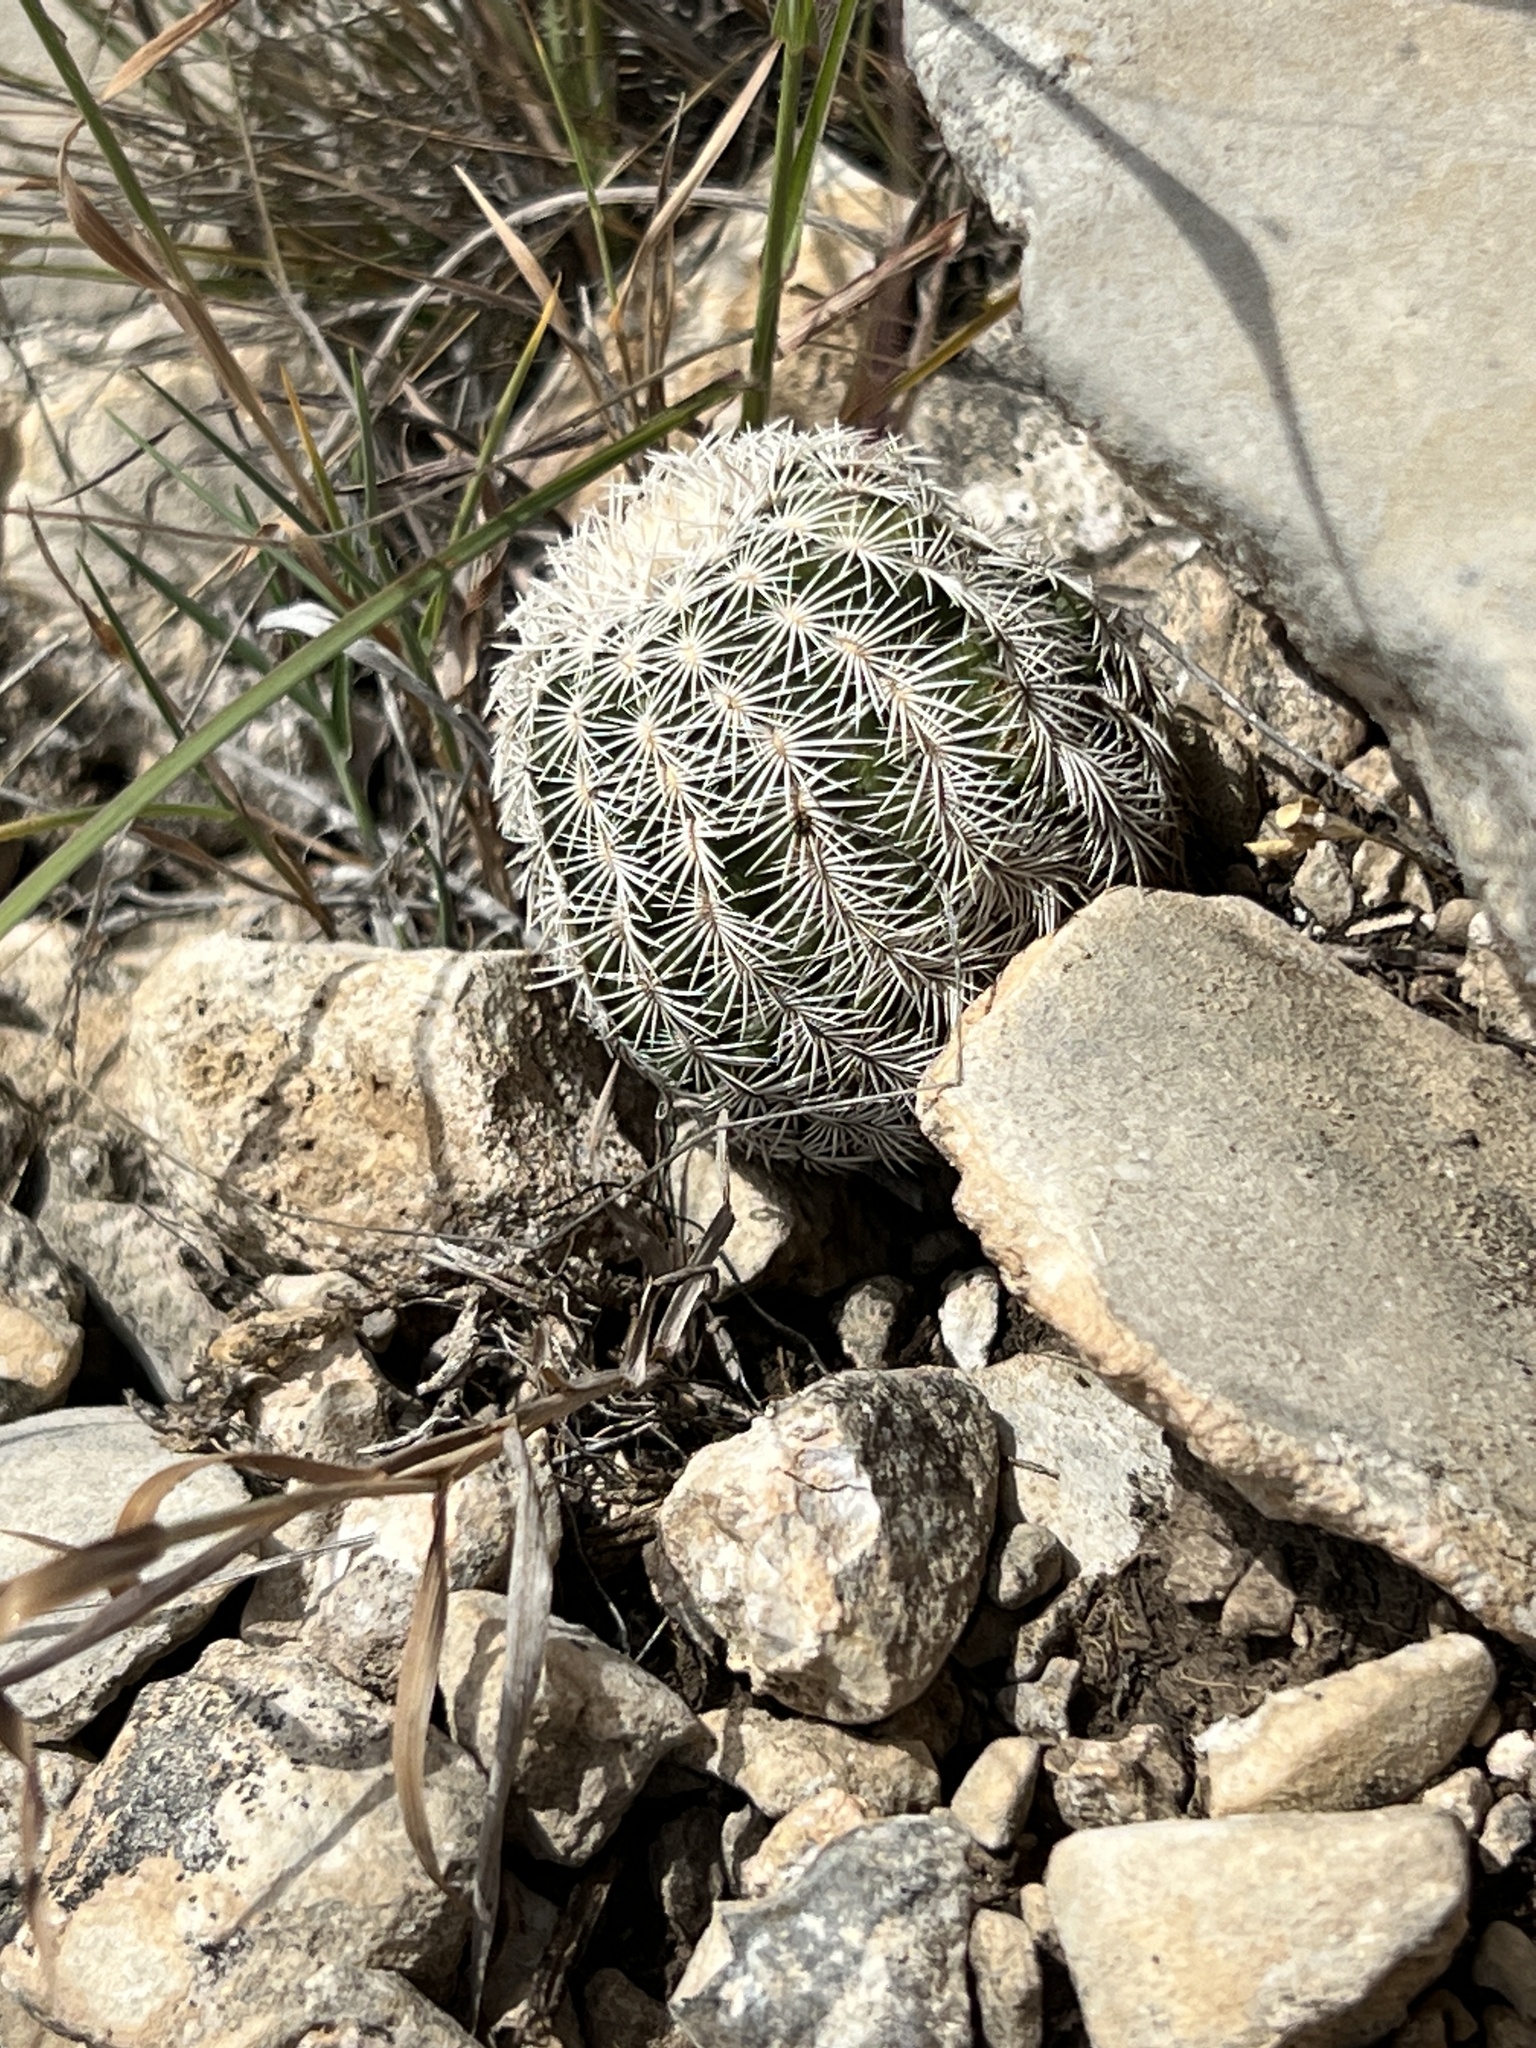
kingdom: Plantae
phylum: Tracheophyta
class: Magnoliopsida
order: Caryophyllales
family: Cactaceae
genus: Echinocereus
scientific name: Echinocereus reichenbachii
